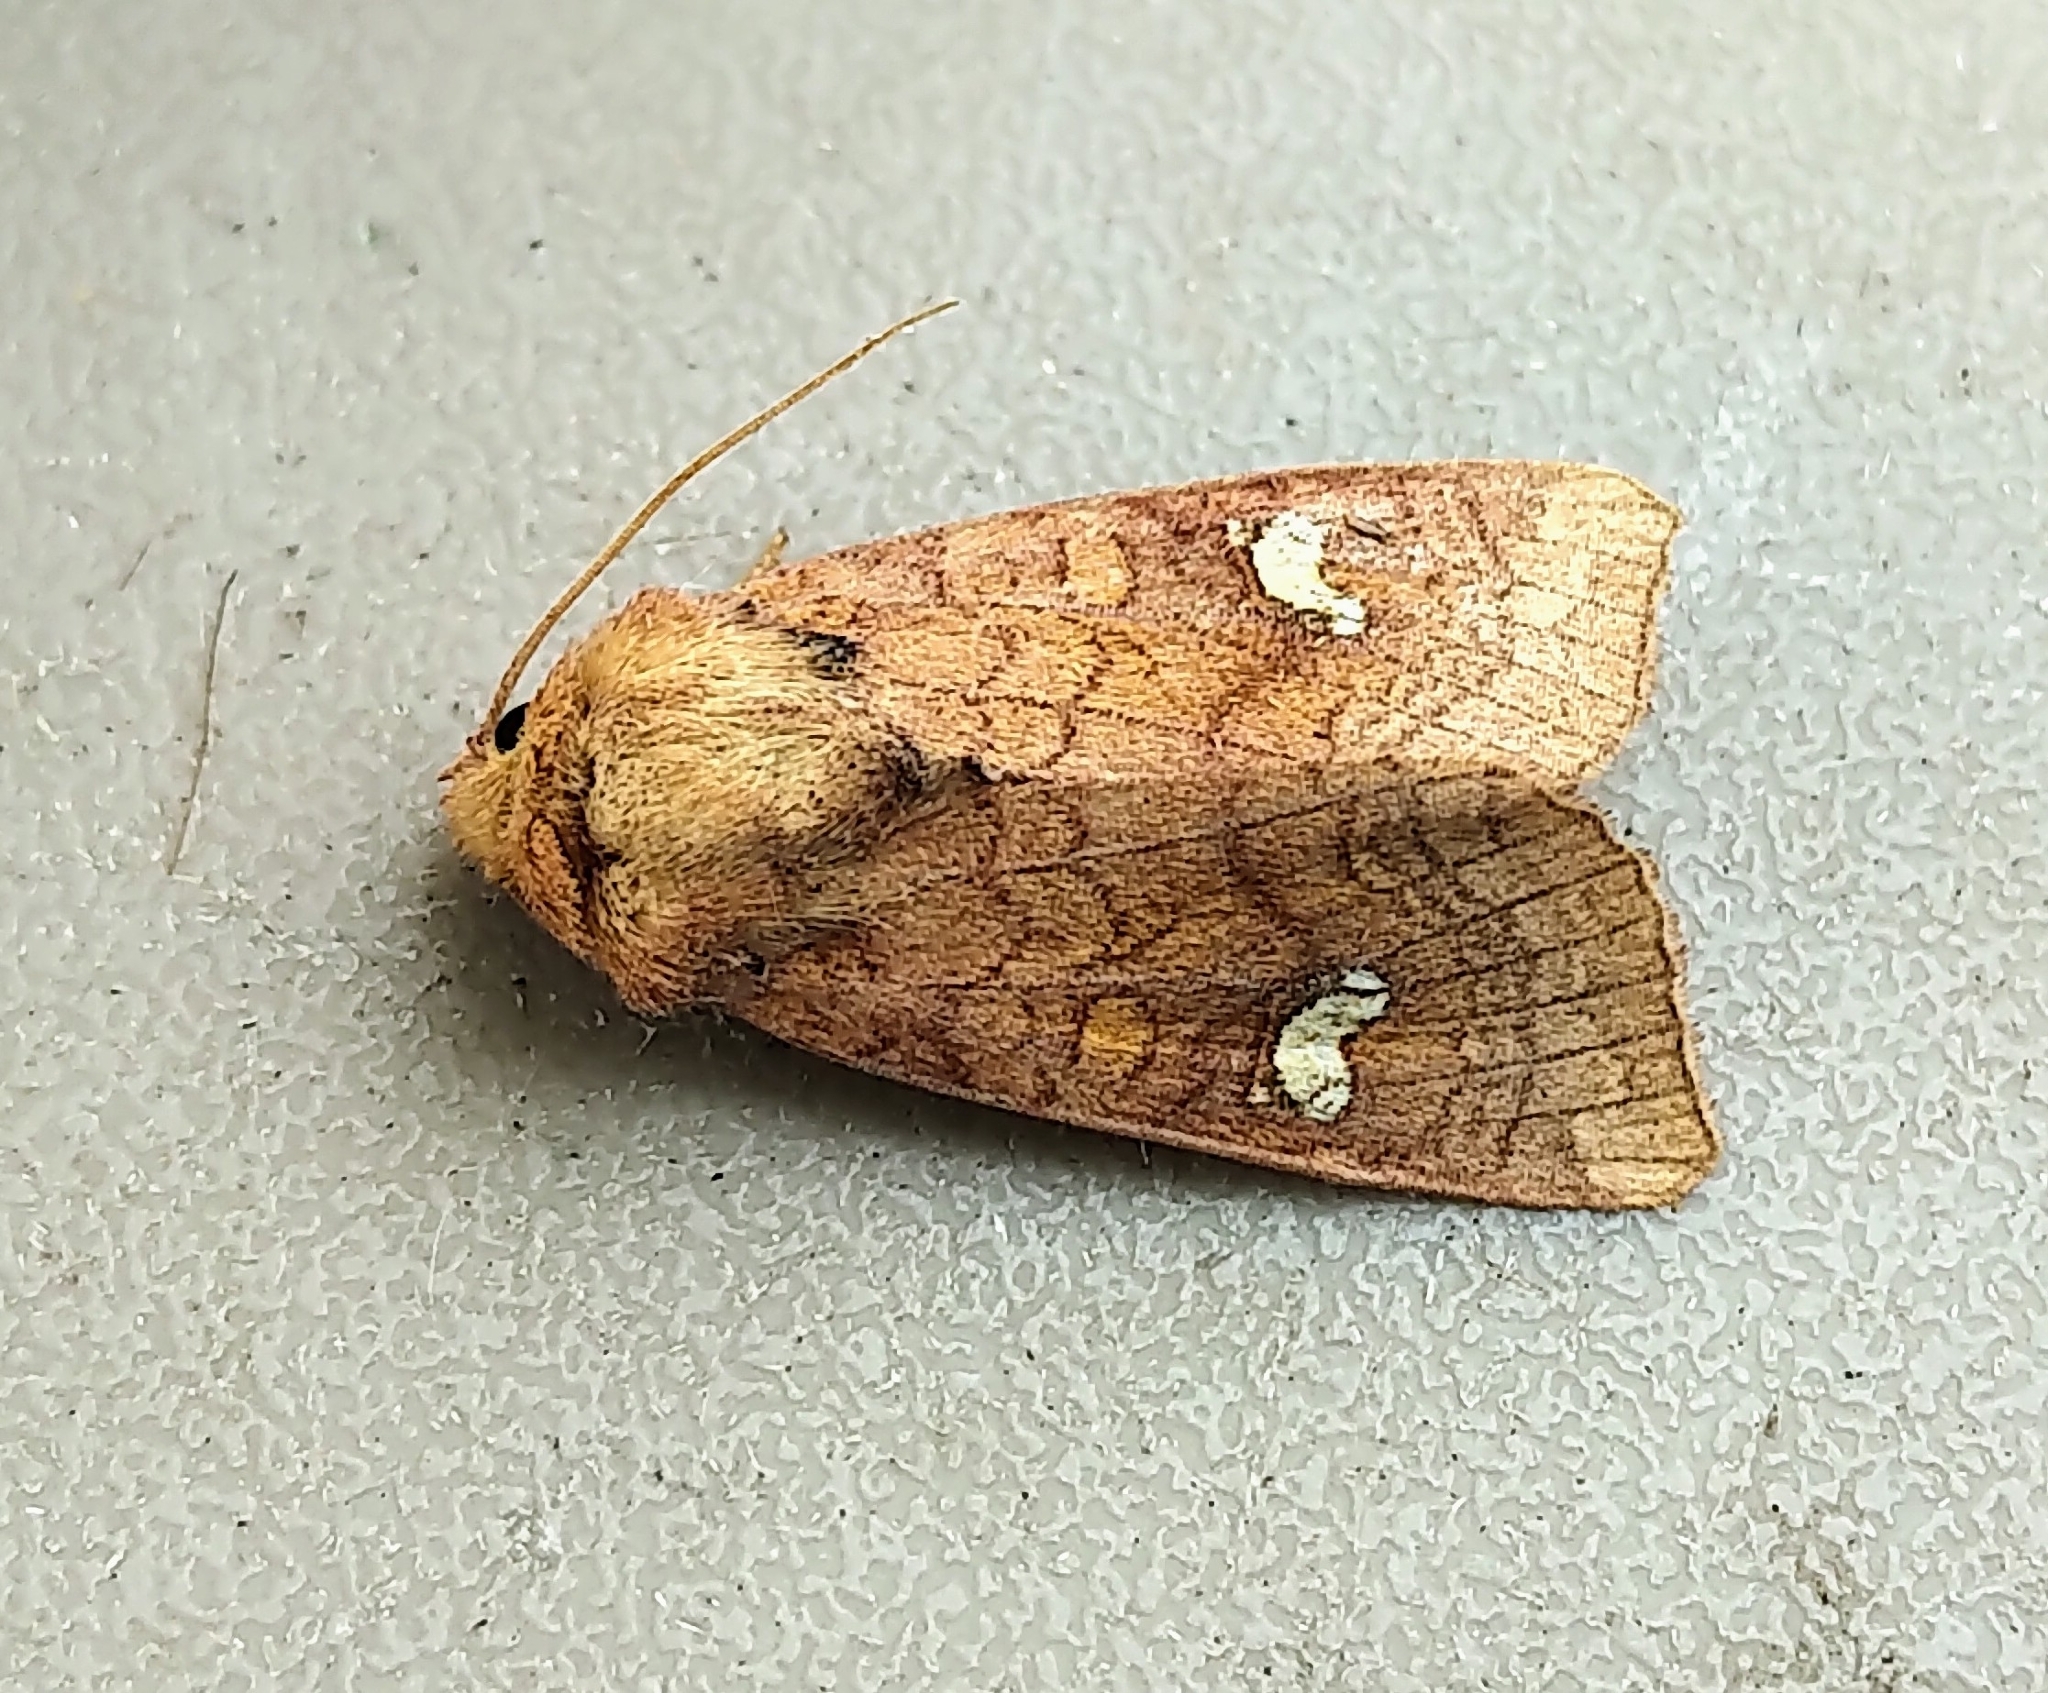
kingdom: Animalia
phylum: Arthropoda
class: Insecta
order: Lepidoptera
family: Noctuidae
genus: Amphipoea
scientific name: Amphipoea interoceanica
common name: Interoceanic ear moth
